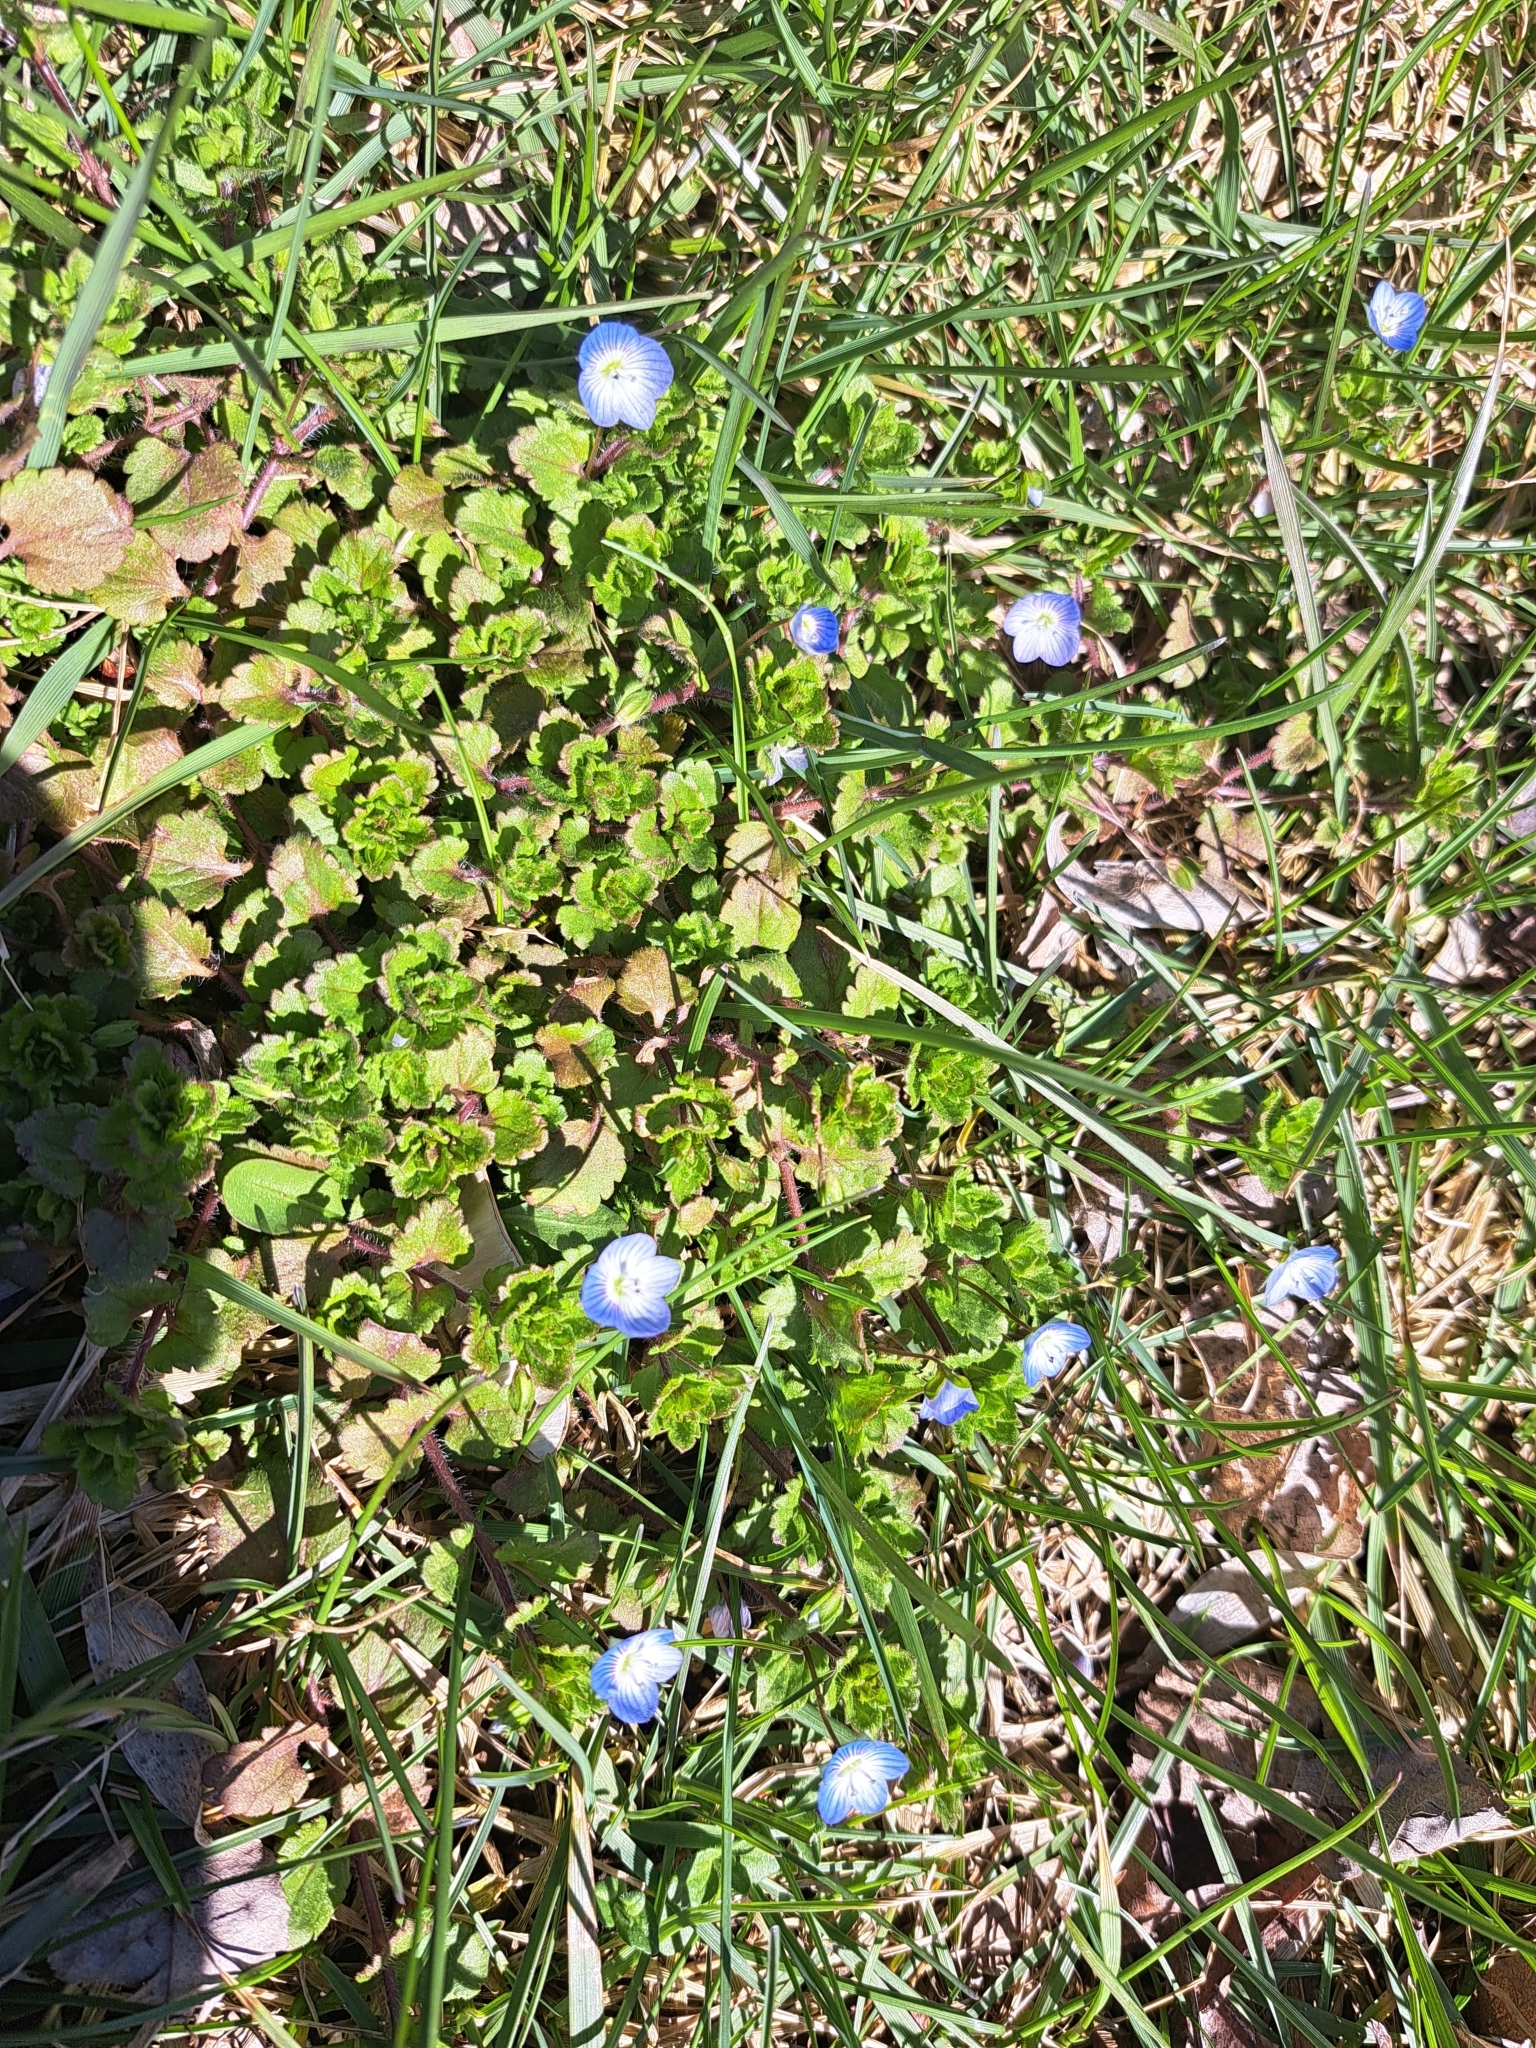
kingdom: Plantae
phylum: Tracheophyta
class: Magnoliopsida
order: Lamiales
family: Plantaginaceae
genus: Veronica
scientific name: Veronica persica
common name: Common field-speedwell
